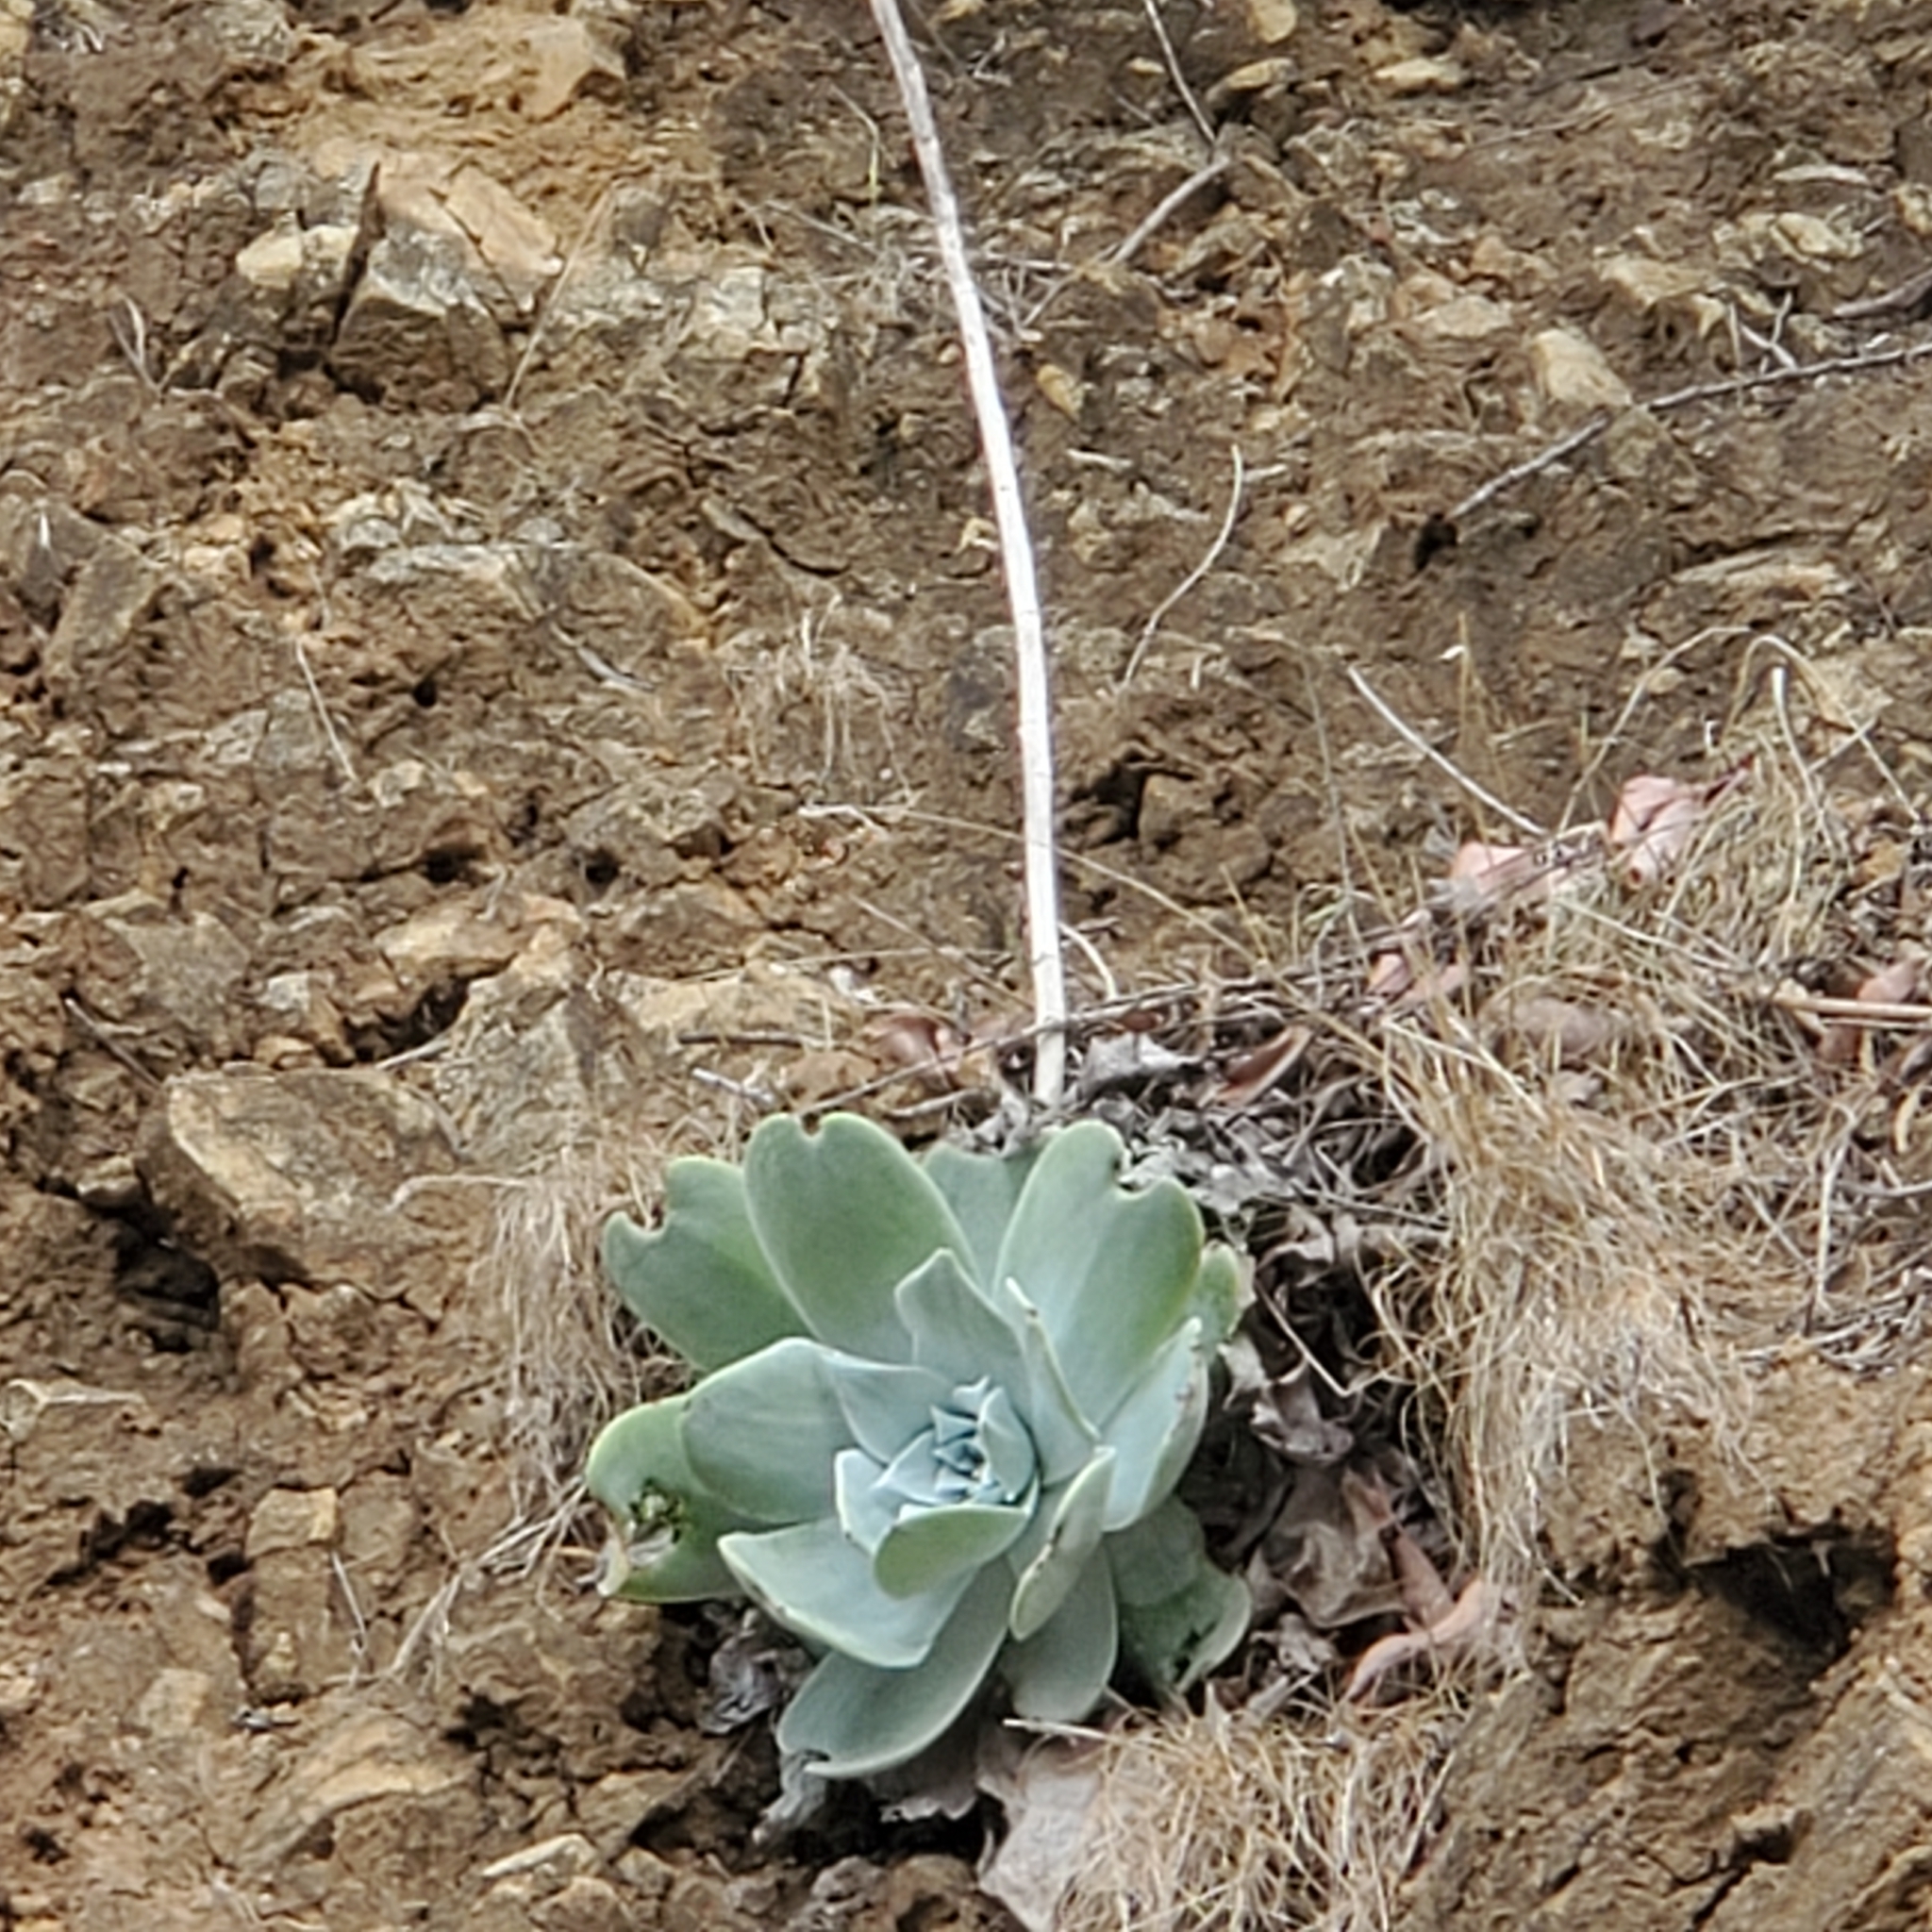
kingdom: Plantae
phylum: Tracheophyta
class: Magnoliopsida
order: Saxifragales
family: Crassulaceae
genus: Dudleya
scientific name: Dudleya pulverulenta
